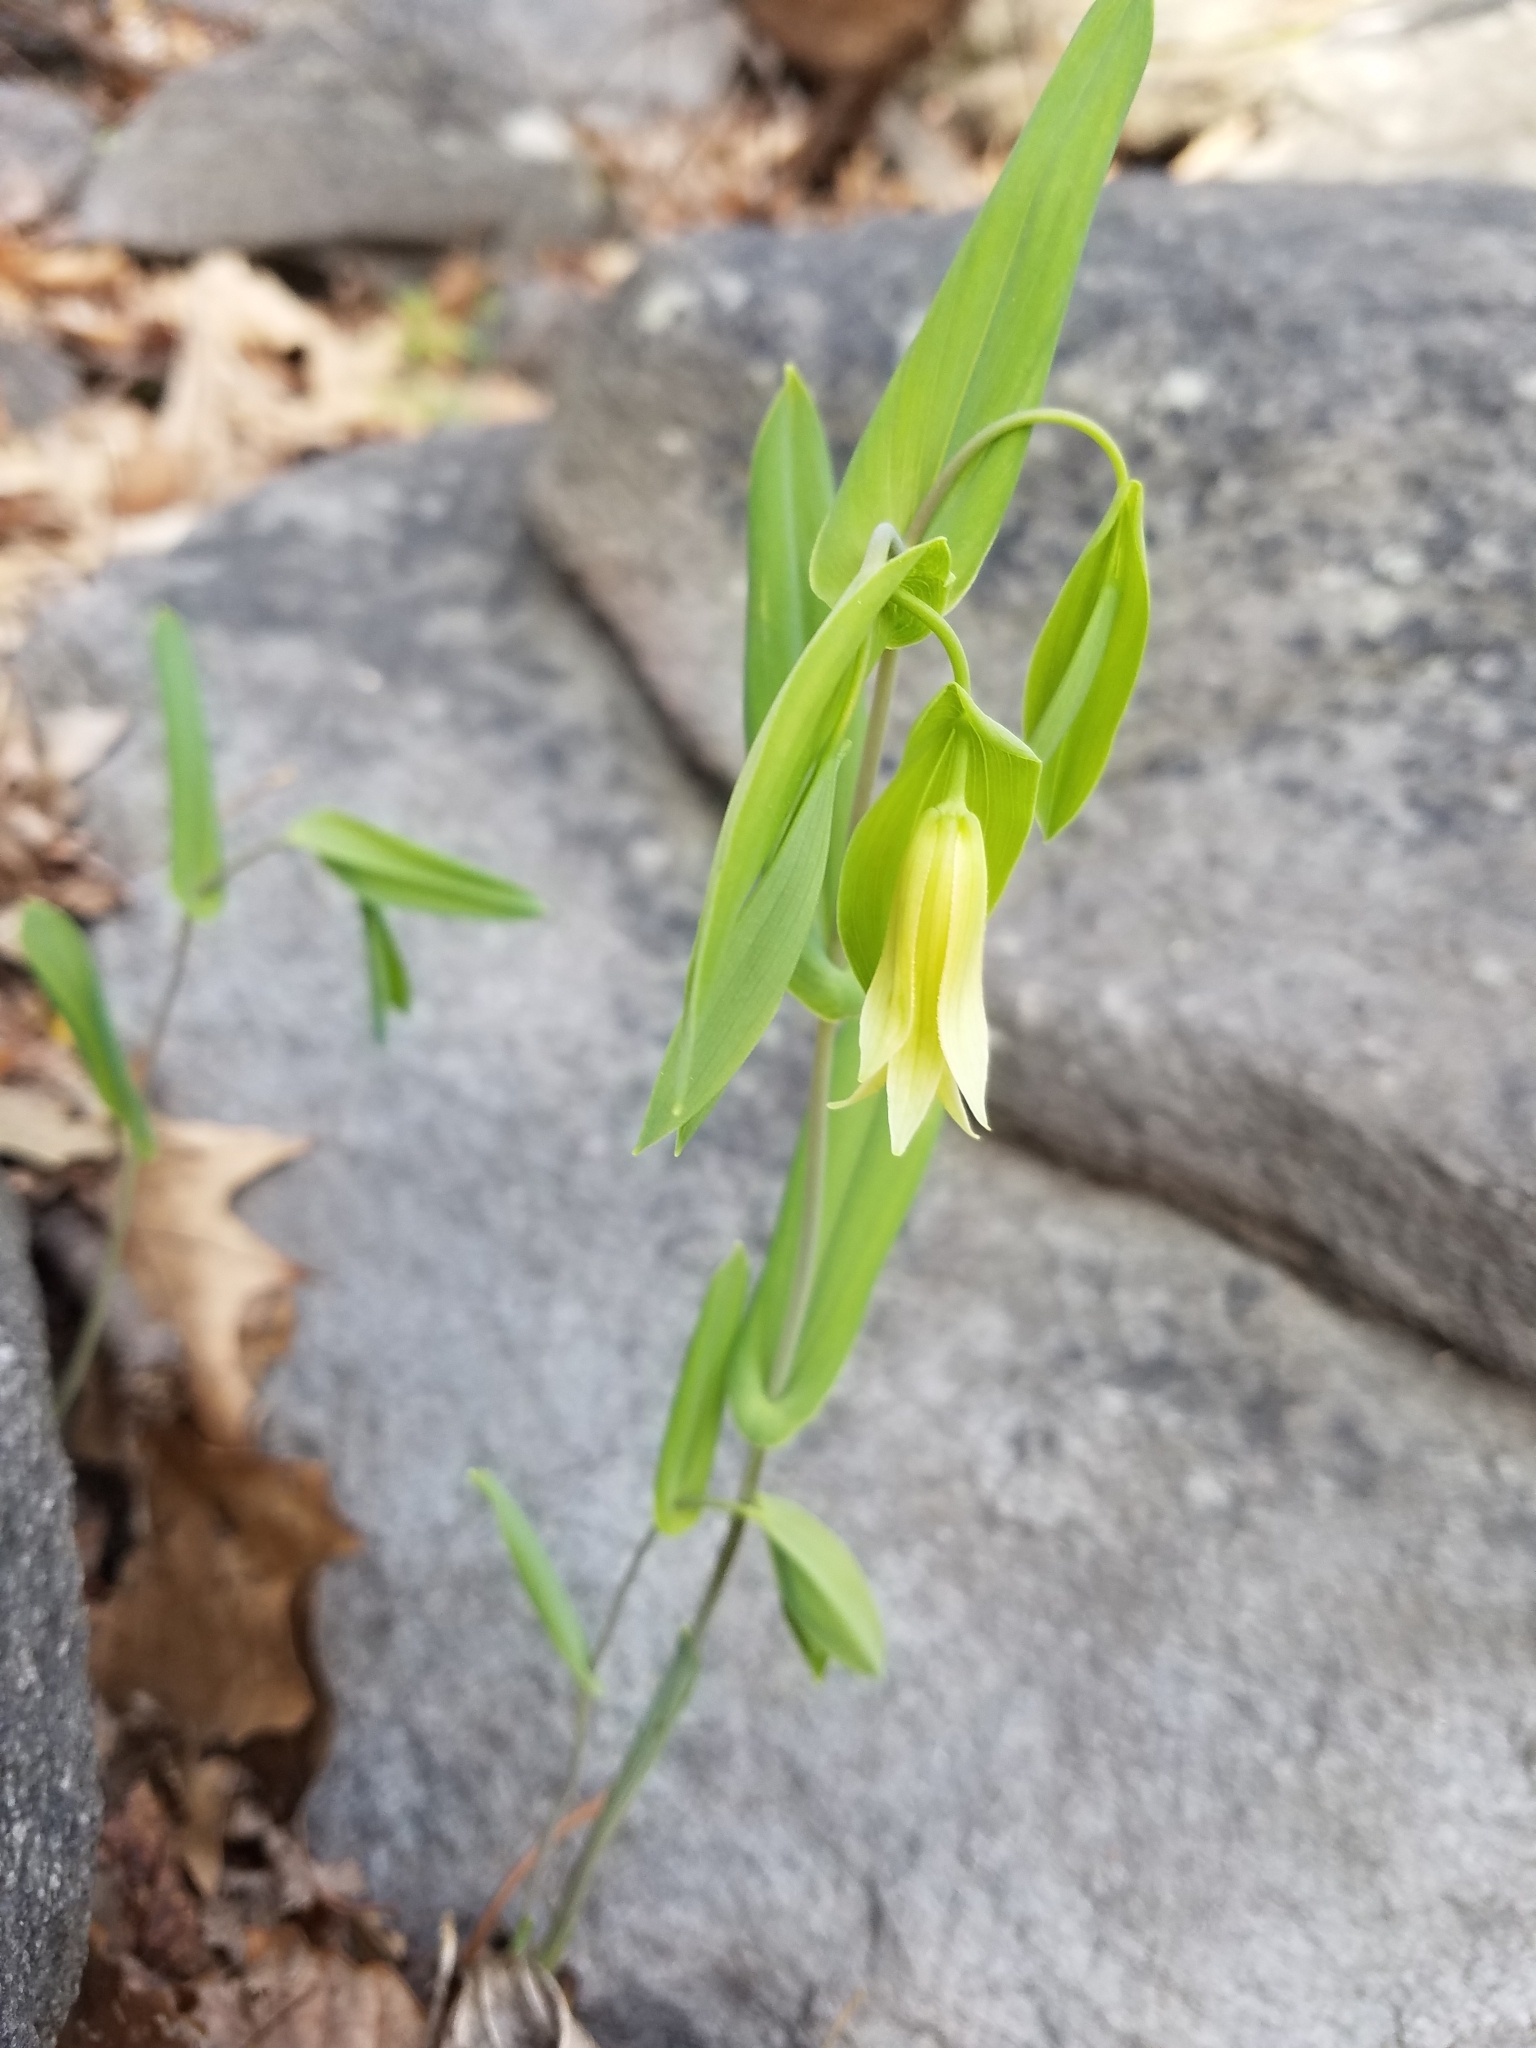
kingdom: Plantae
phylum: Tracheophyta
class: Liliopsida
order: Liliales
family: Colchicaceae
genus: Uvularia
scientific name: Uvularia perfoliata
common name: Perfoliate bellwort
